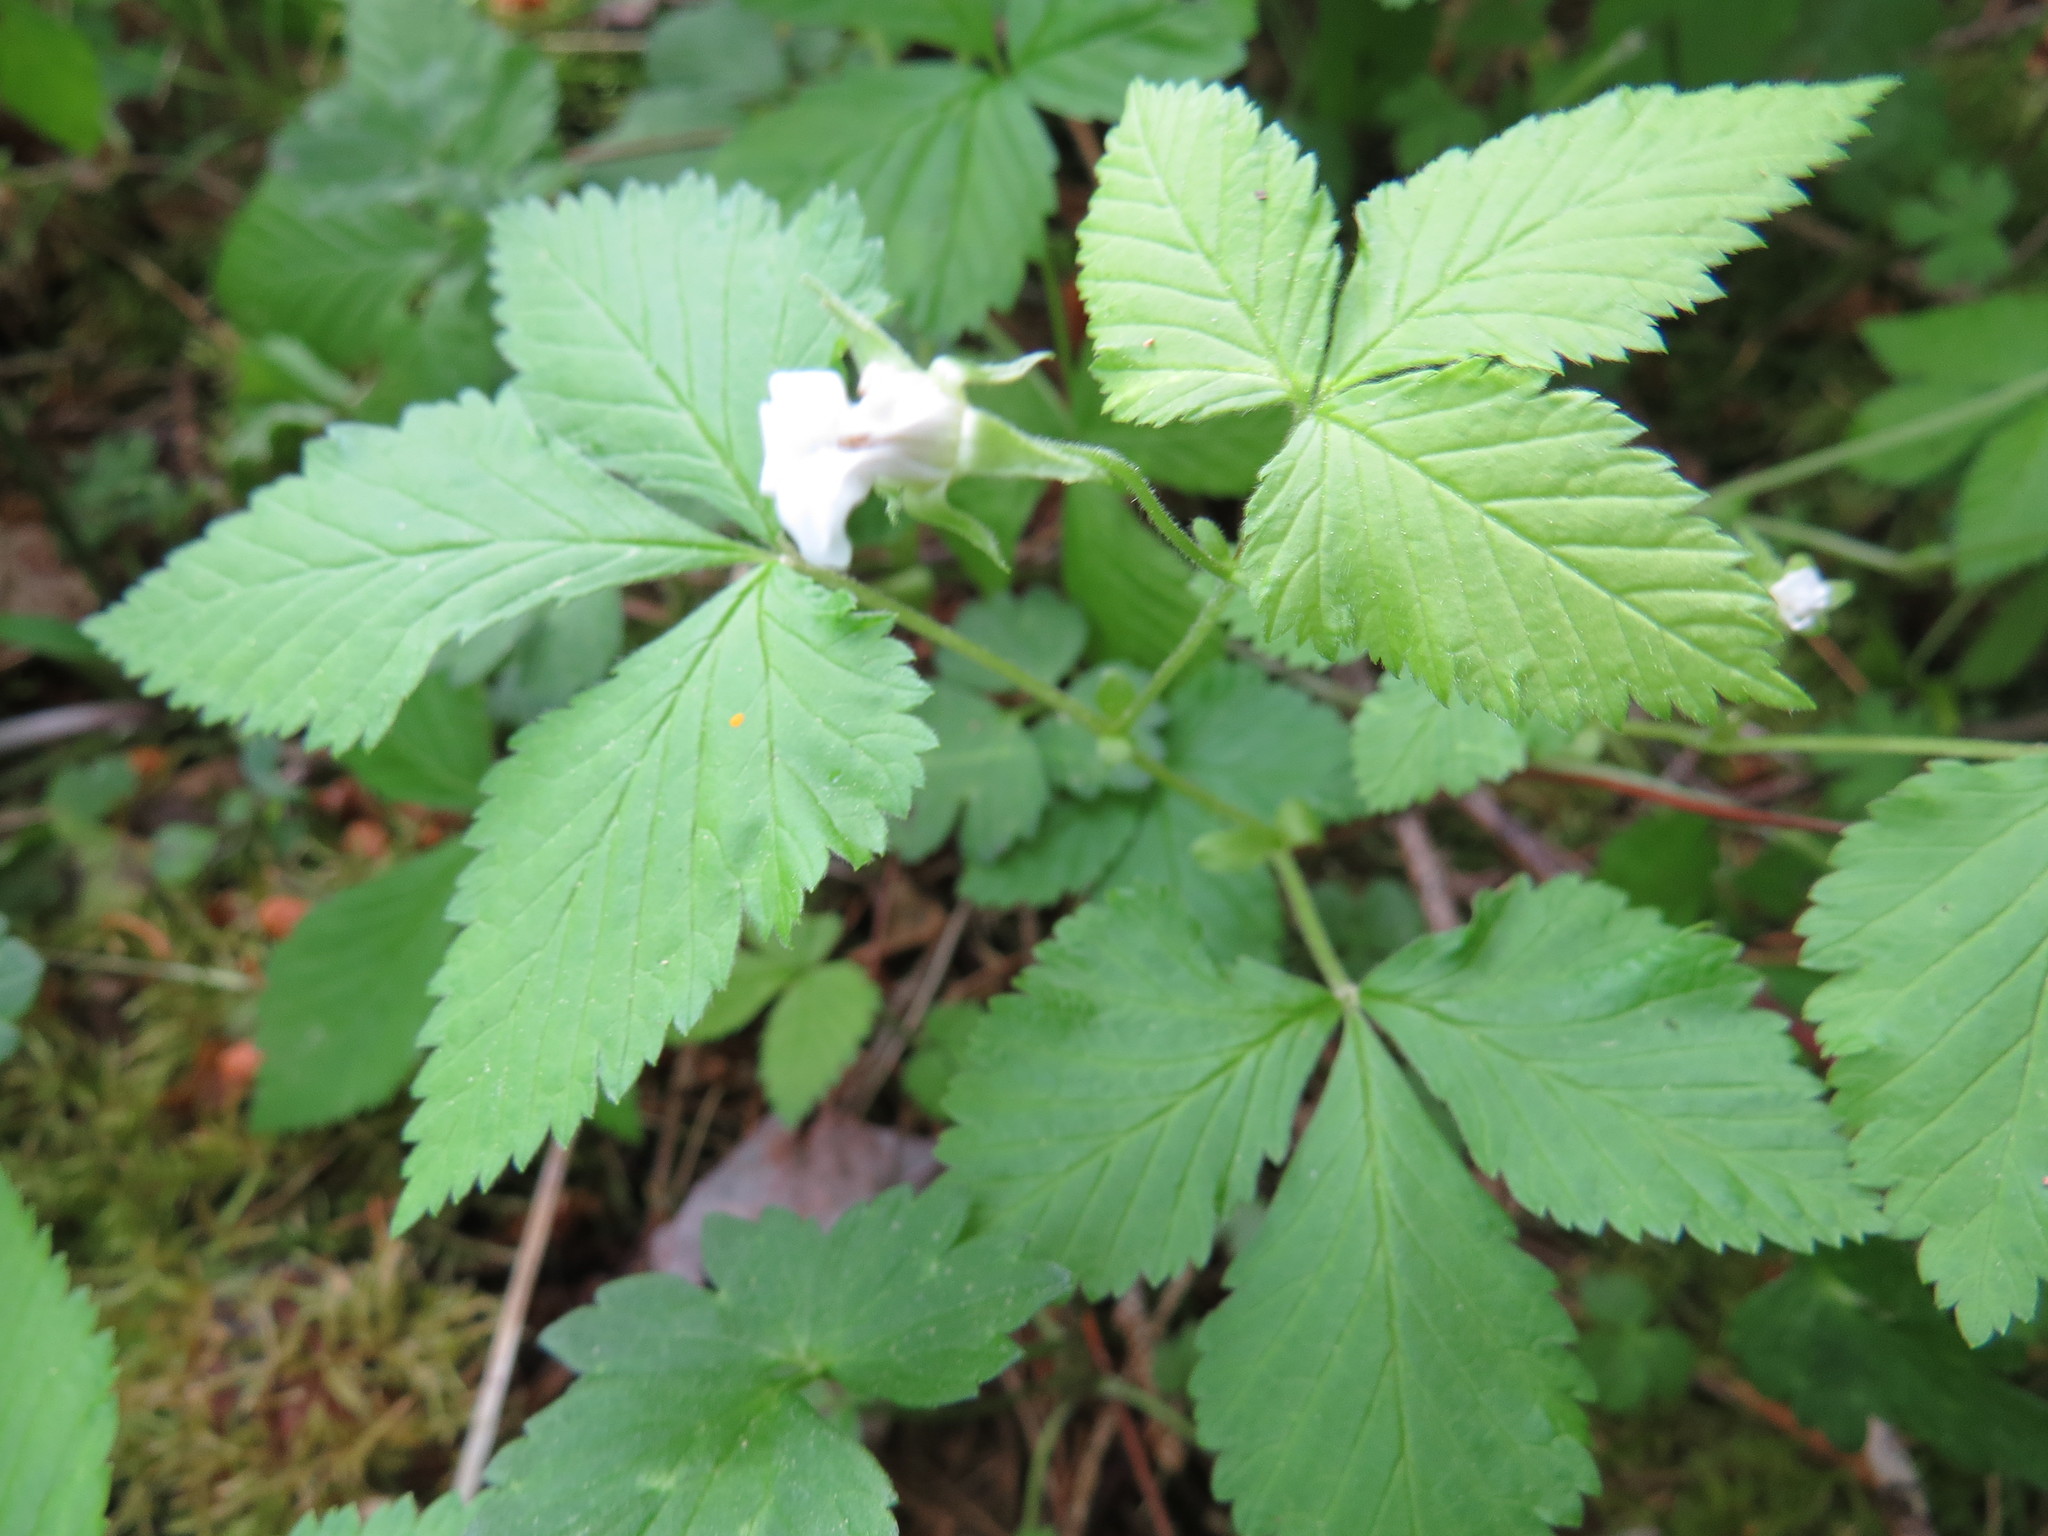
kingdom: Plantae
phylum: Tracheophyta
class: Magnoliopsida
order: Rosales
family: Rosaceae
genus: Rubus
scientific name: Rubus pubescens
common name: Dwarf raspberry
